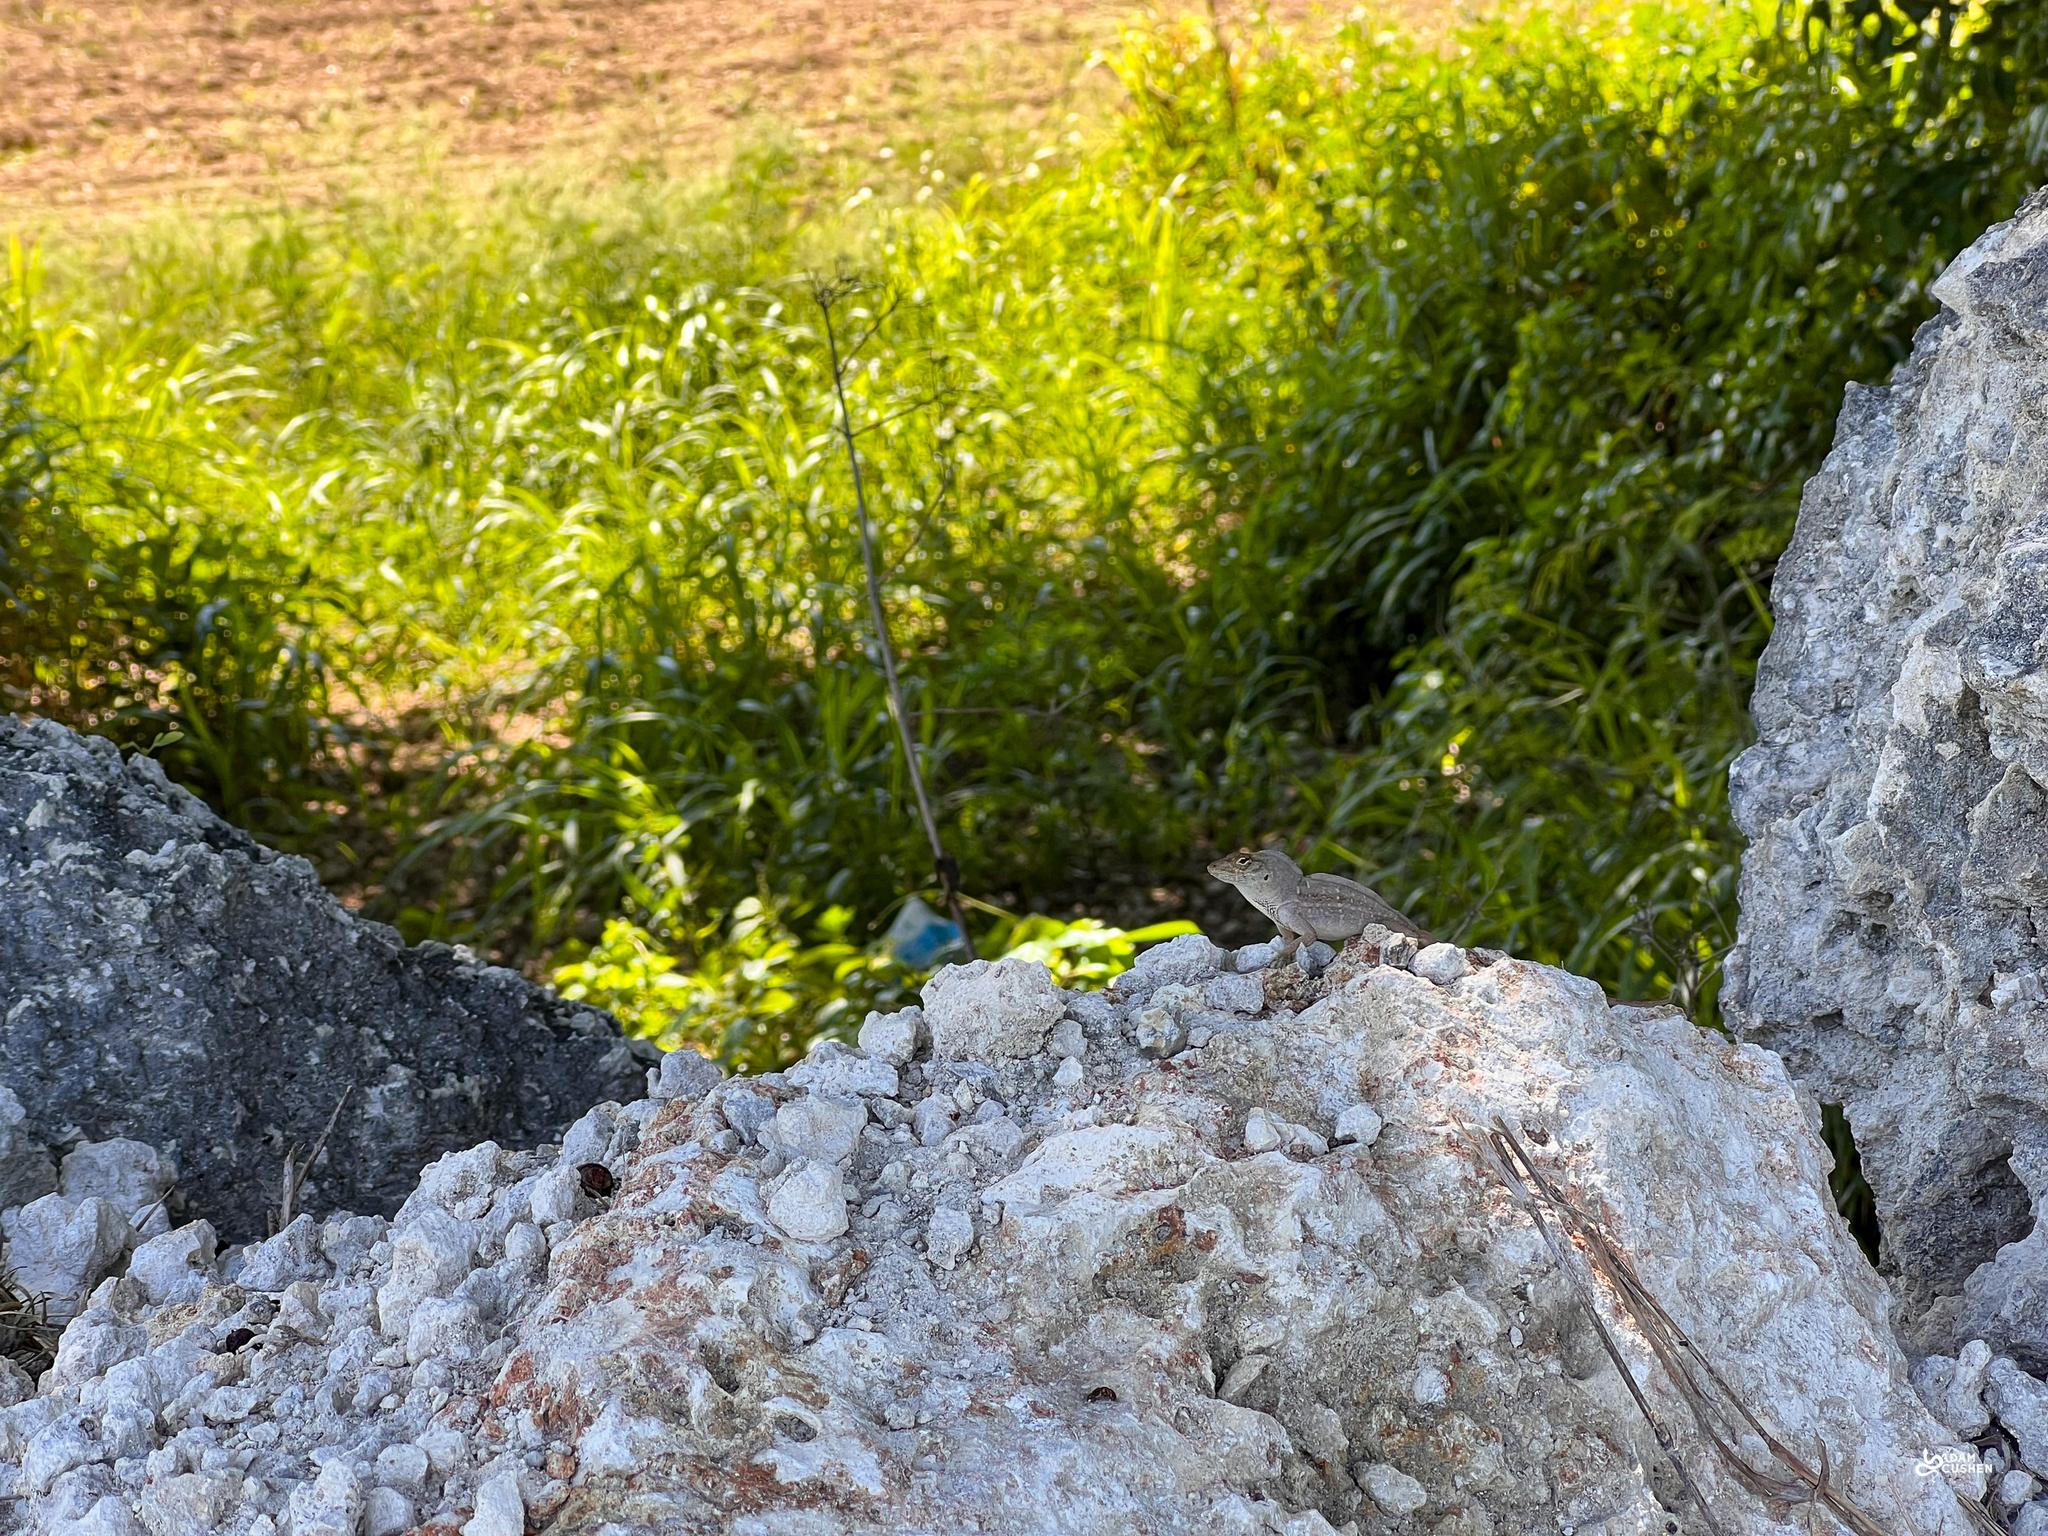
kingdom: Animalia
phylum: Chordata
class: Squamata
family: Dactyloidae
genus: Anolis
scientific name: Anolis sagrei
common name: Brown anole
